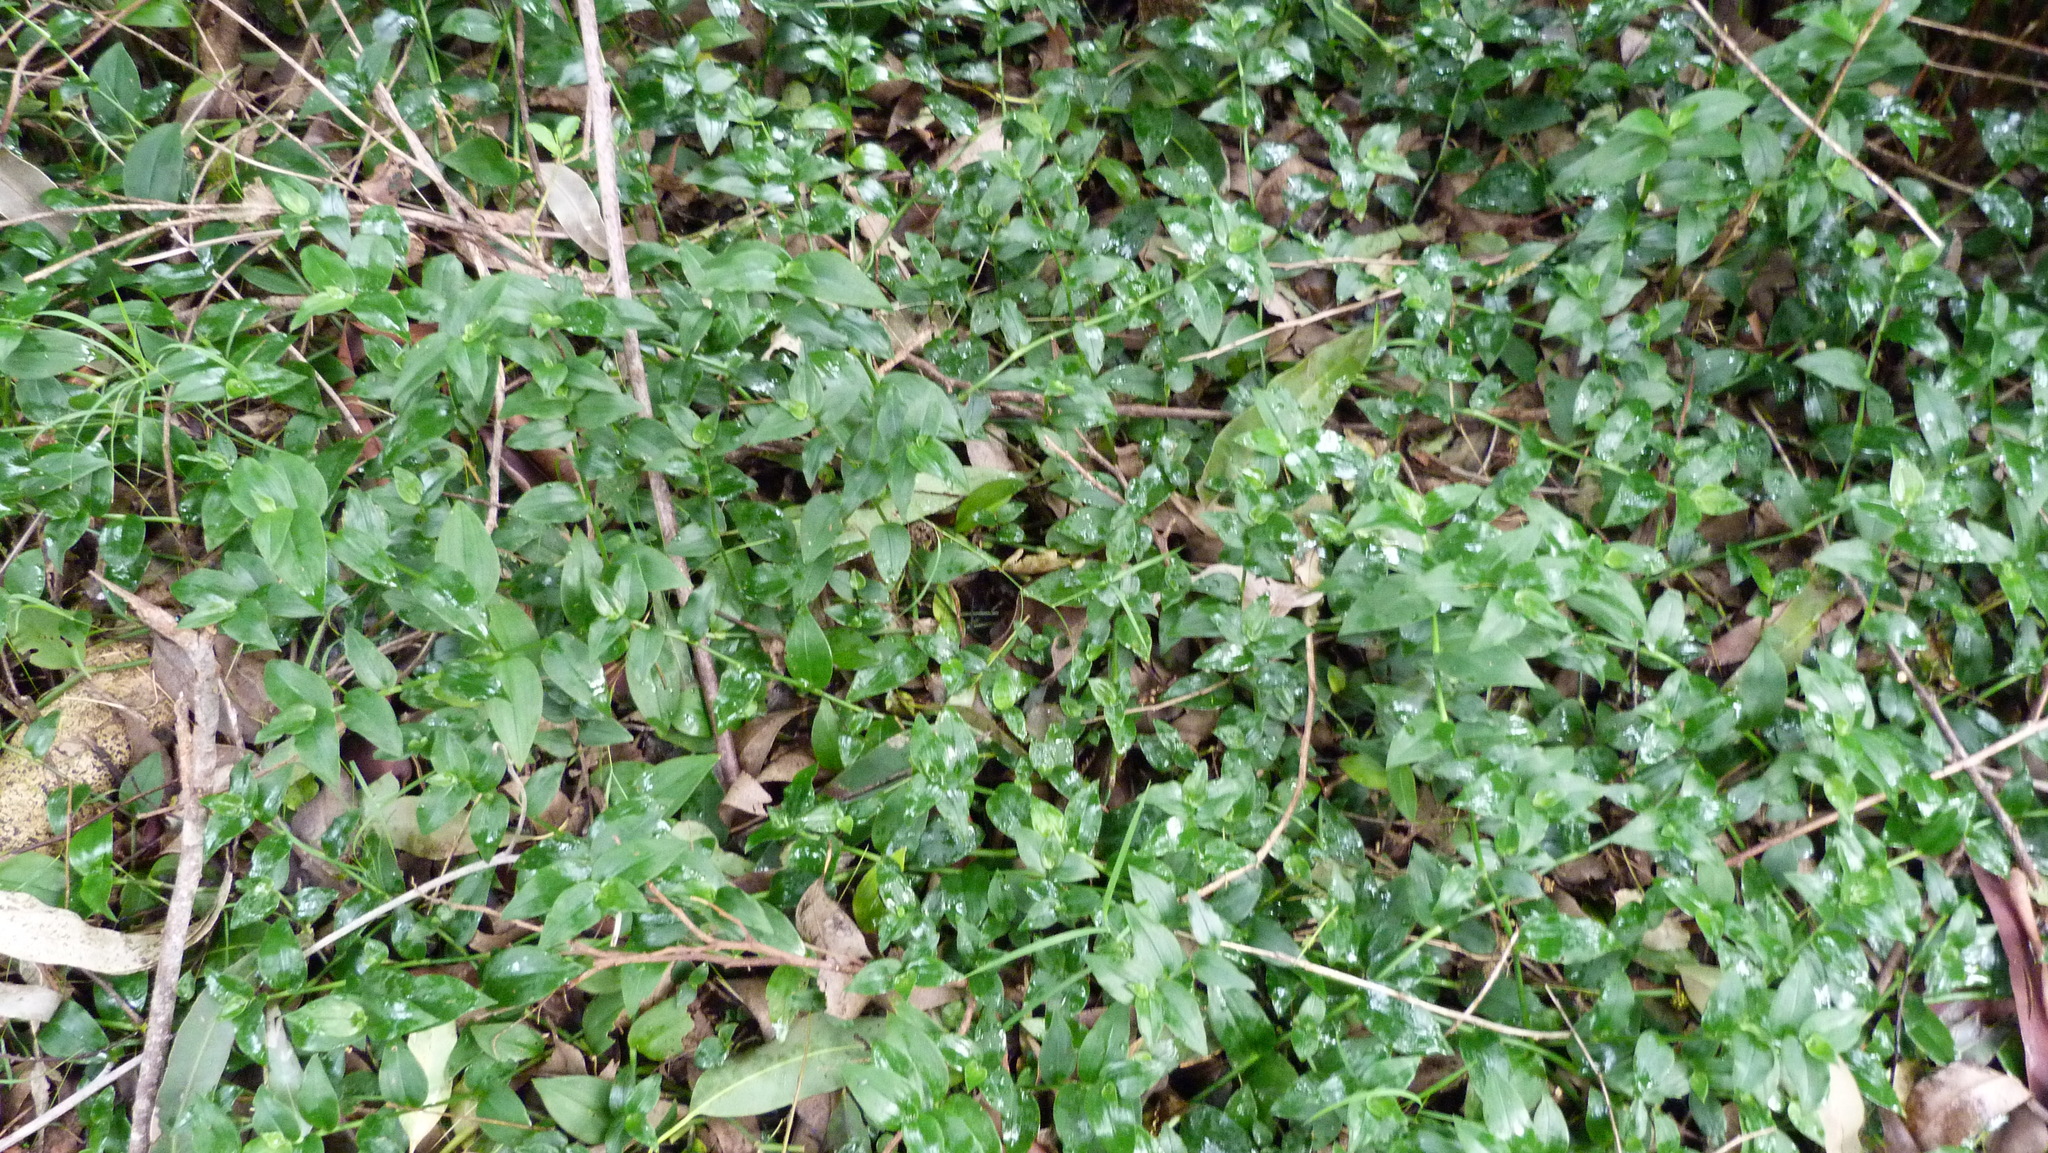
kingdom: Plantae
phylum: Tracheophyta
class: Liliopsida
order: Commelinales
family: Commelinaceae
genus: Tradescantia
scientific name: Tradescantia fluminensis
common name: Wandering-jew
